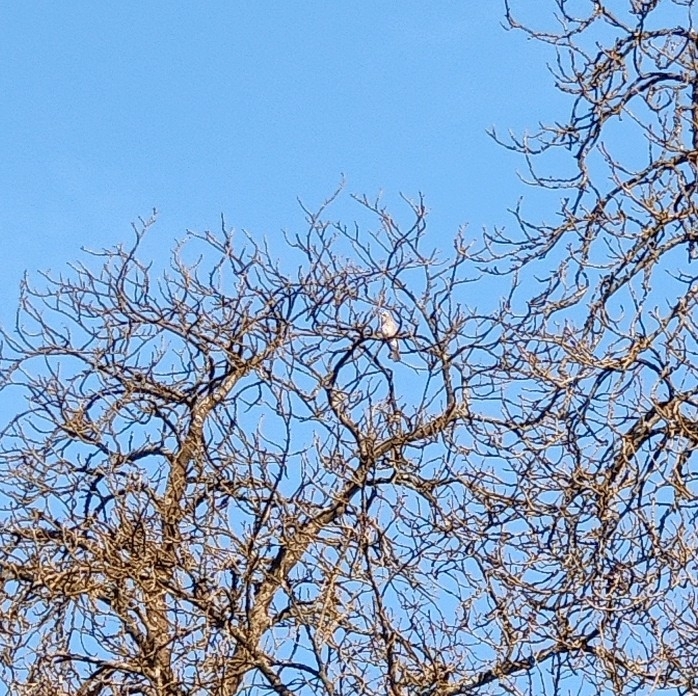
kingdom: Animalia
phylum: Chordata
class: Aves
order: Passeriformes
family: Corvidae
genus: Garrulus
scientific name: Garrulus glandarius
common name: Eurasian jay
